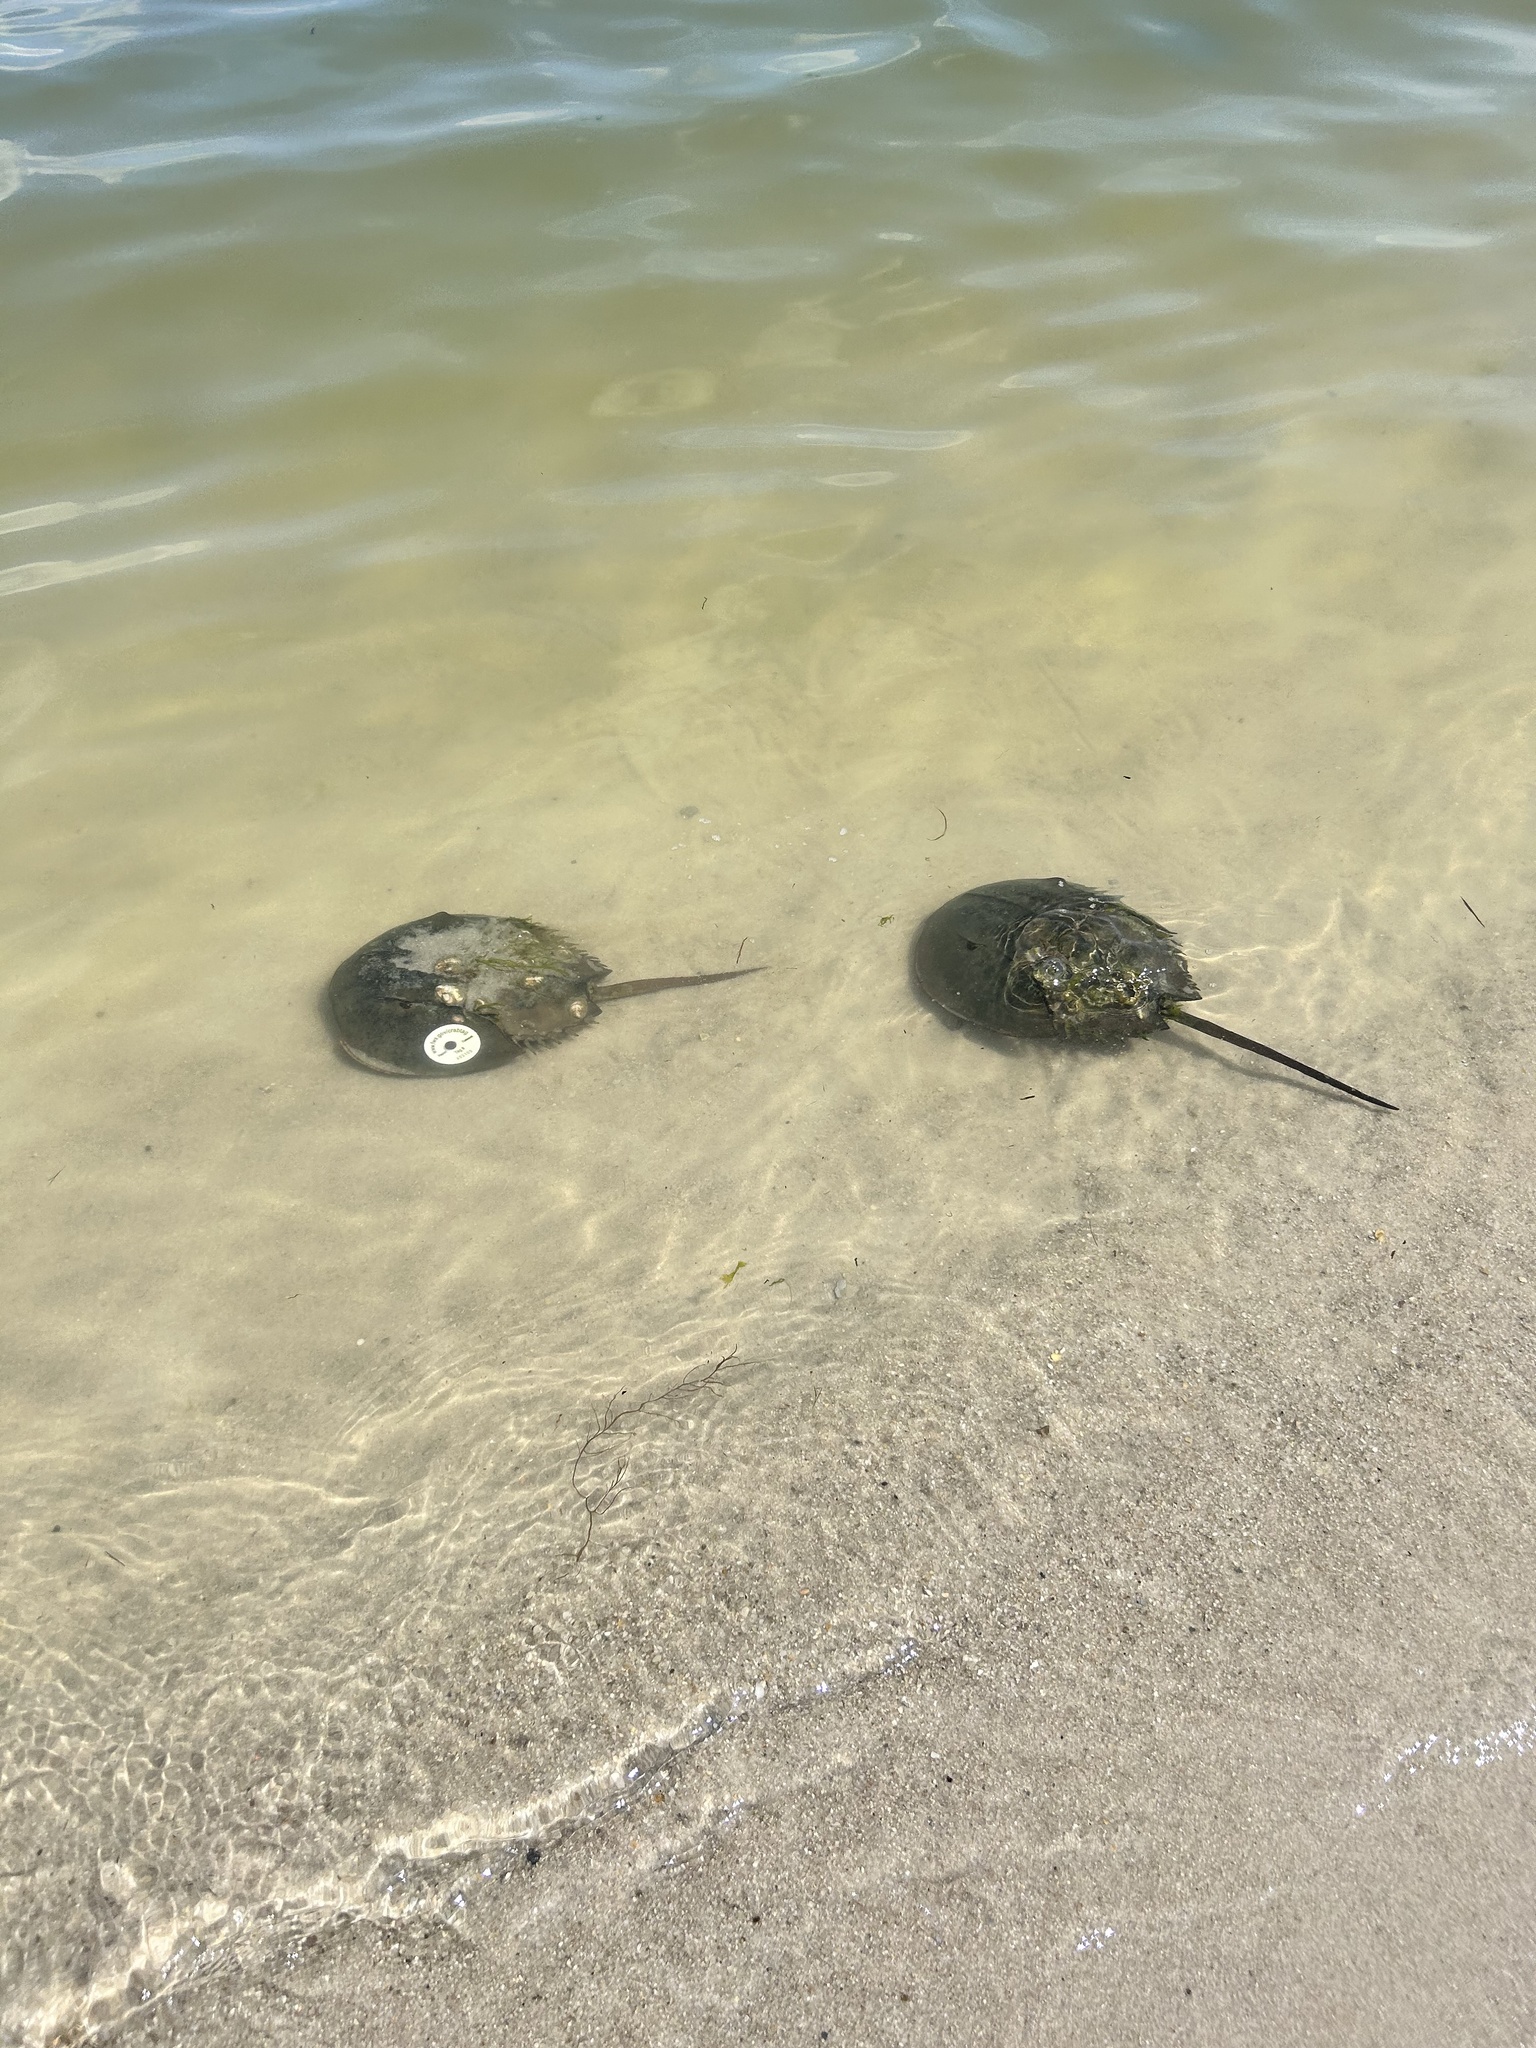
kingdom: Animalia
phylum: Arthropoda
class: Merostomata
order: Xiphosurida
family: Limulidae
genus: Limulus
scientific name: Limulus polyphemus
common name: Horseshoe crab
